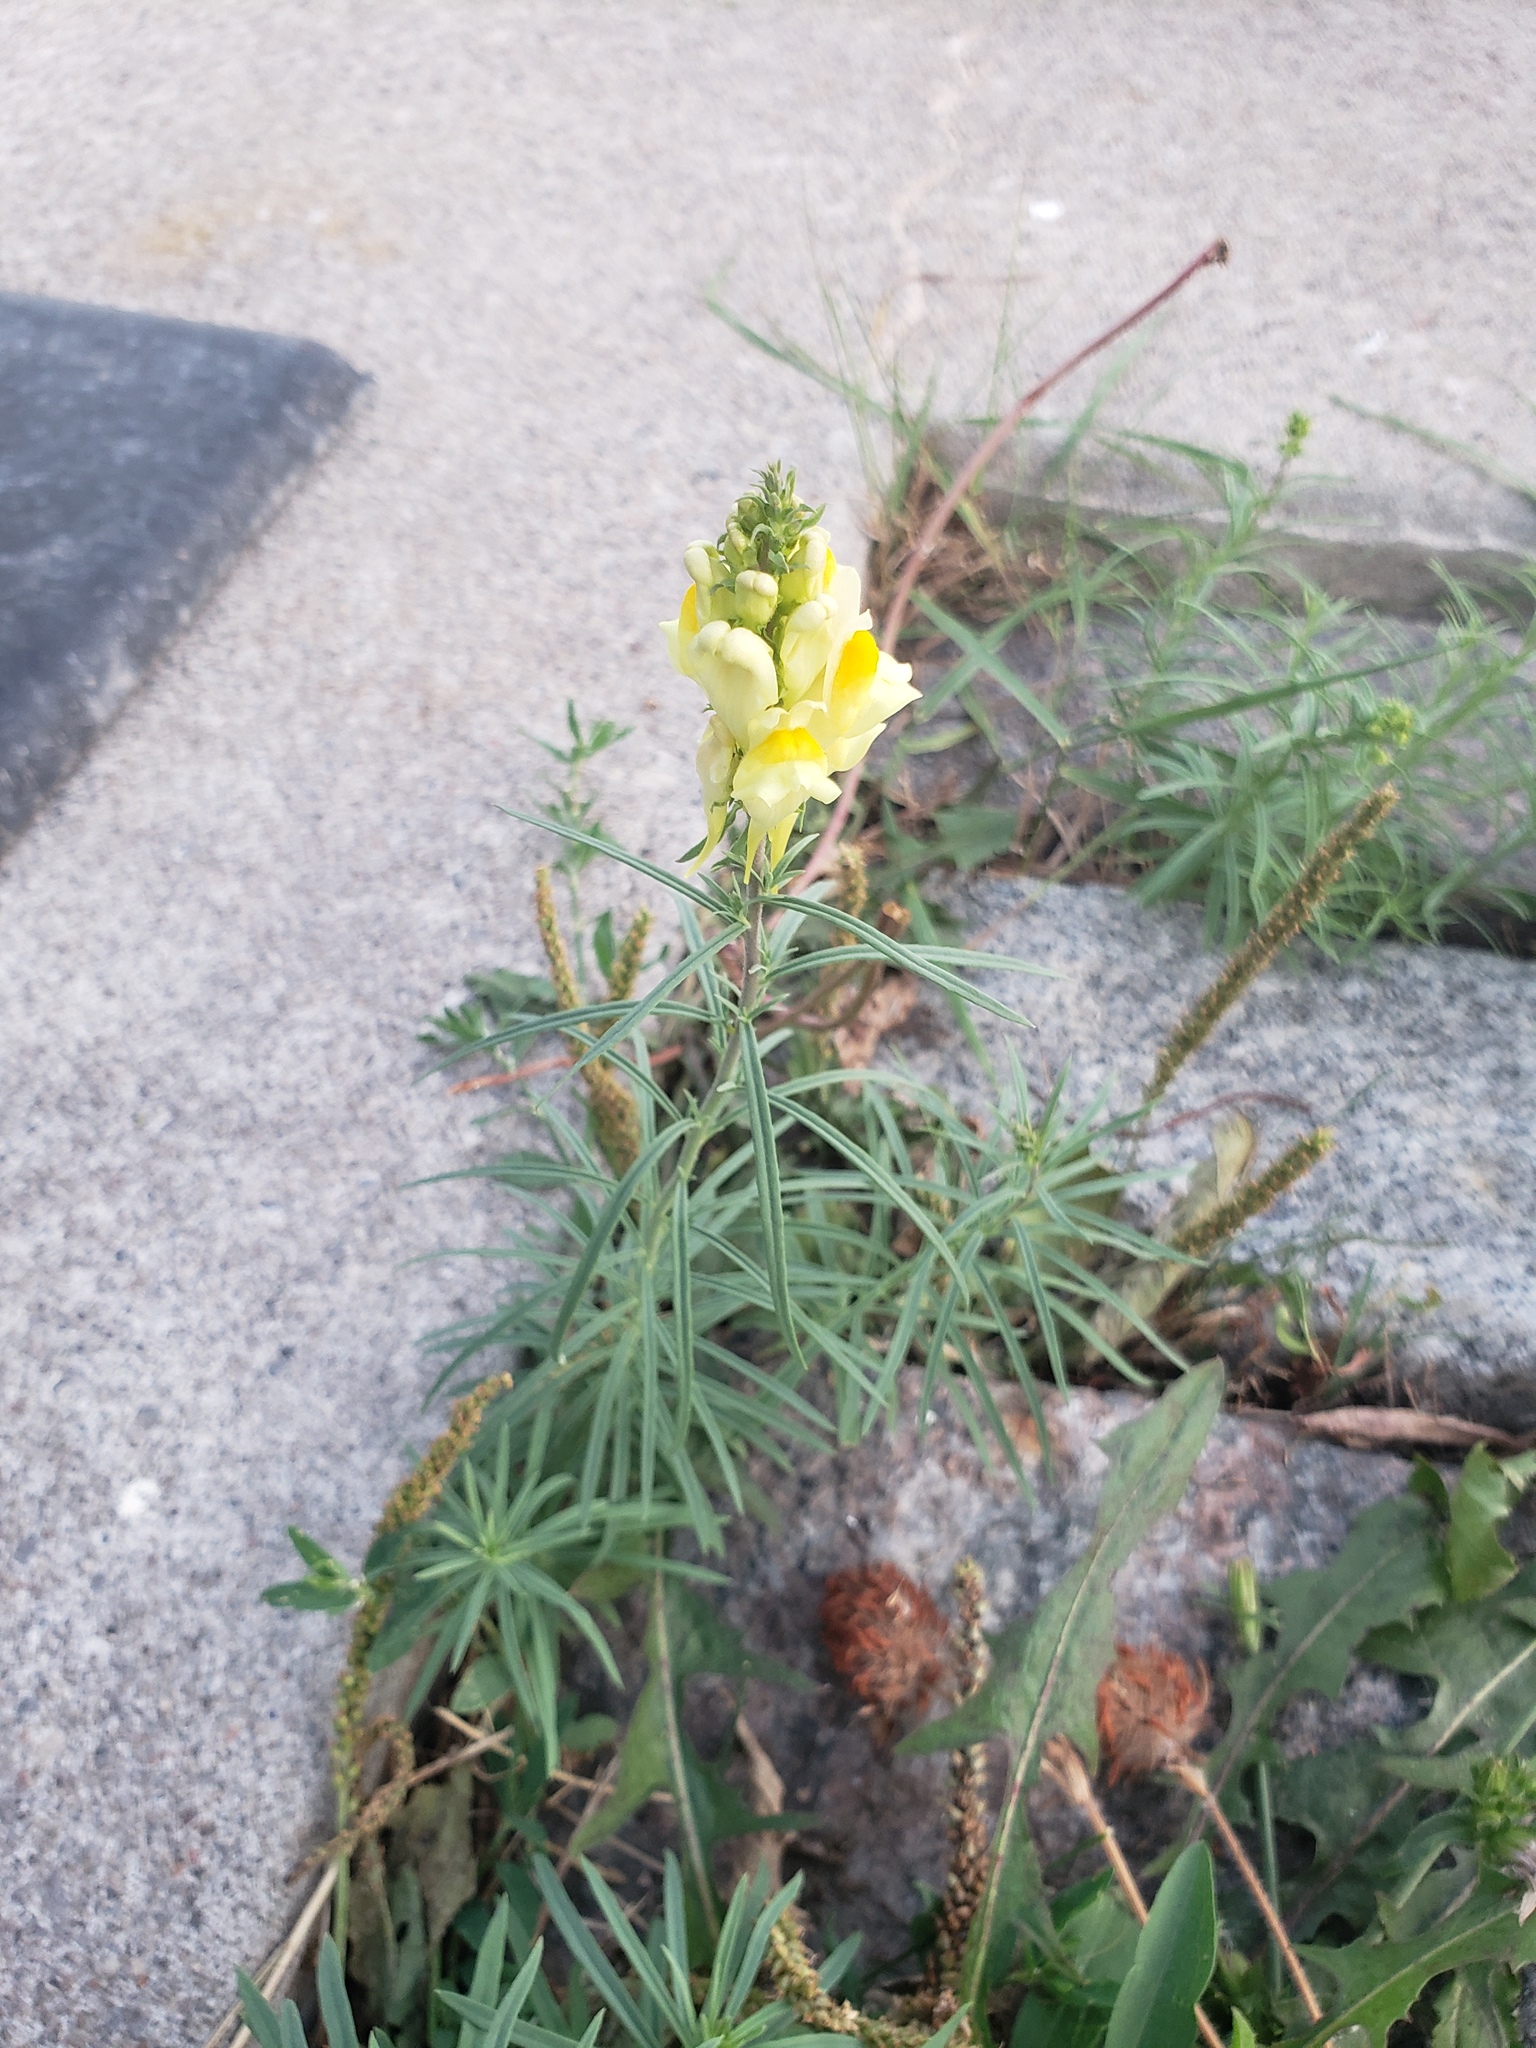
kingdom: Plantae
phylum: Tracheophyta
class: Magnoliopsida
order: Lamiales
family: Plantaginaceae
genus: Linaria
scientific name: Linaria vulgaris
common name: Butter and eggs
